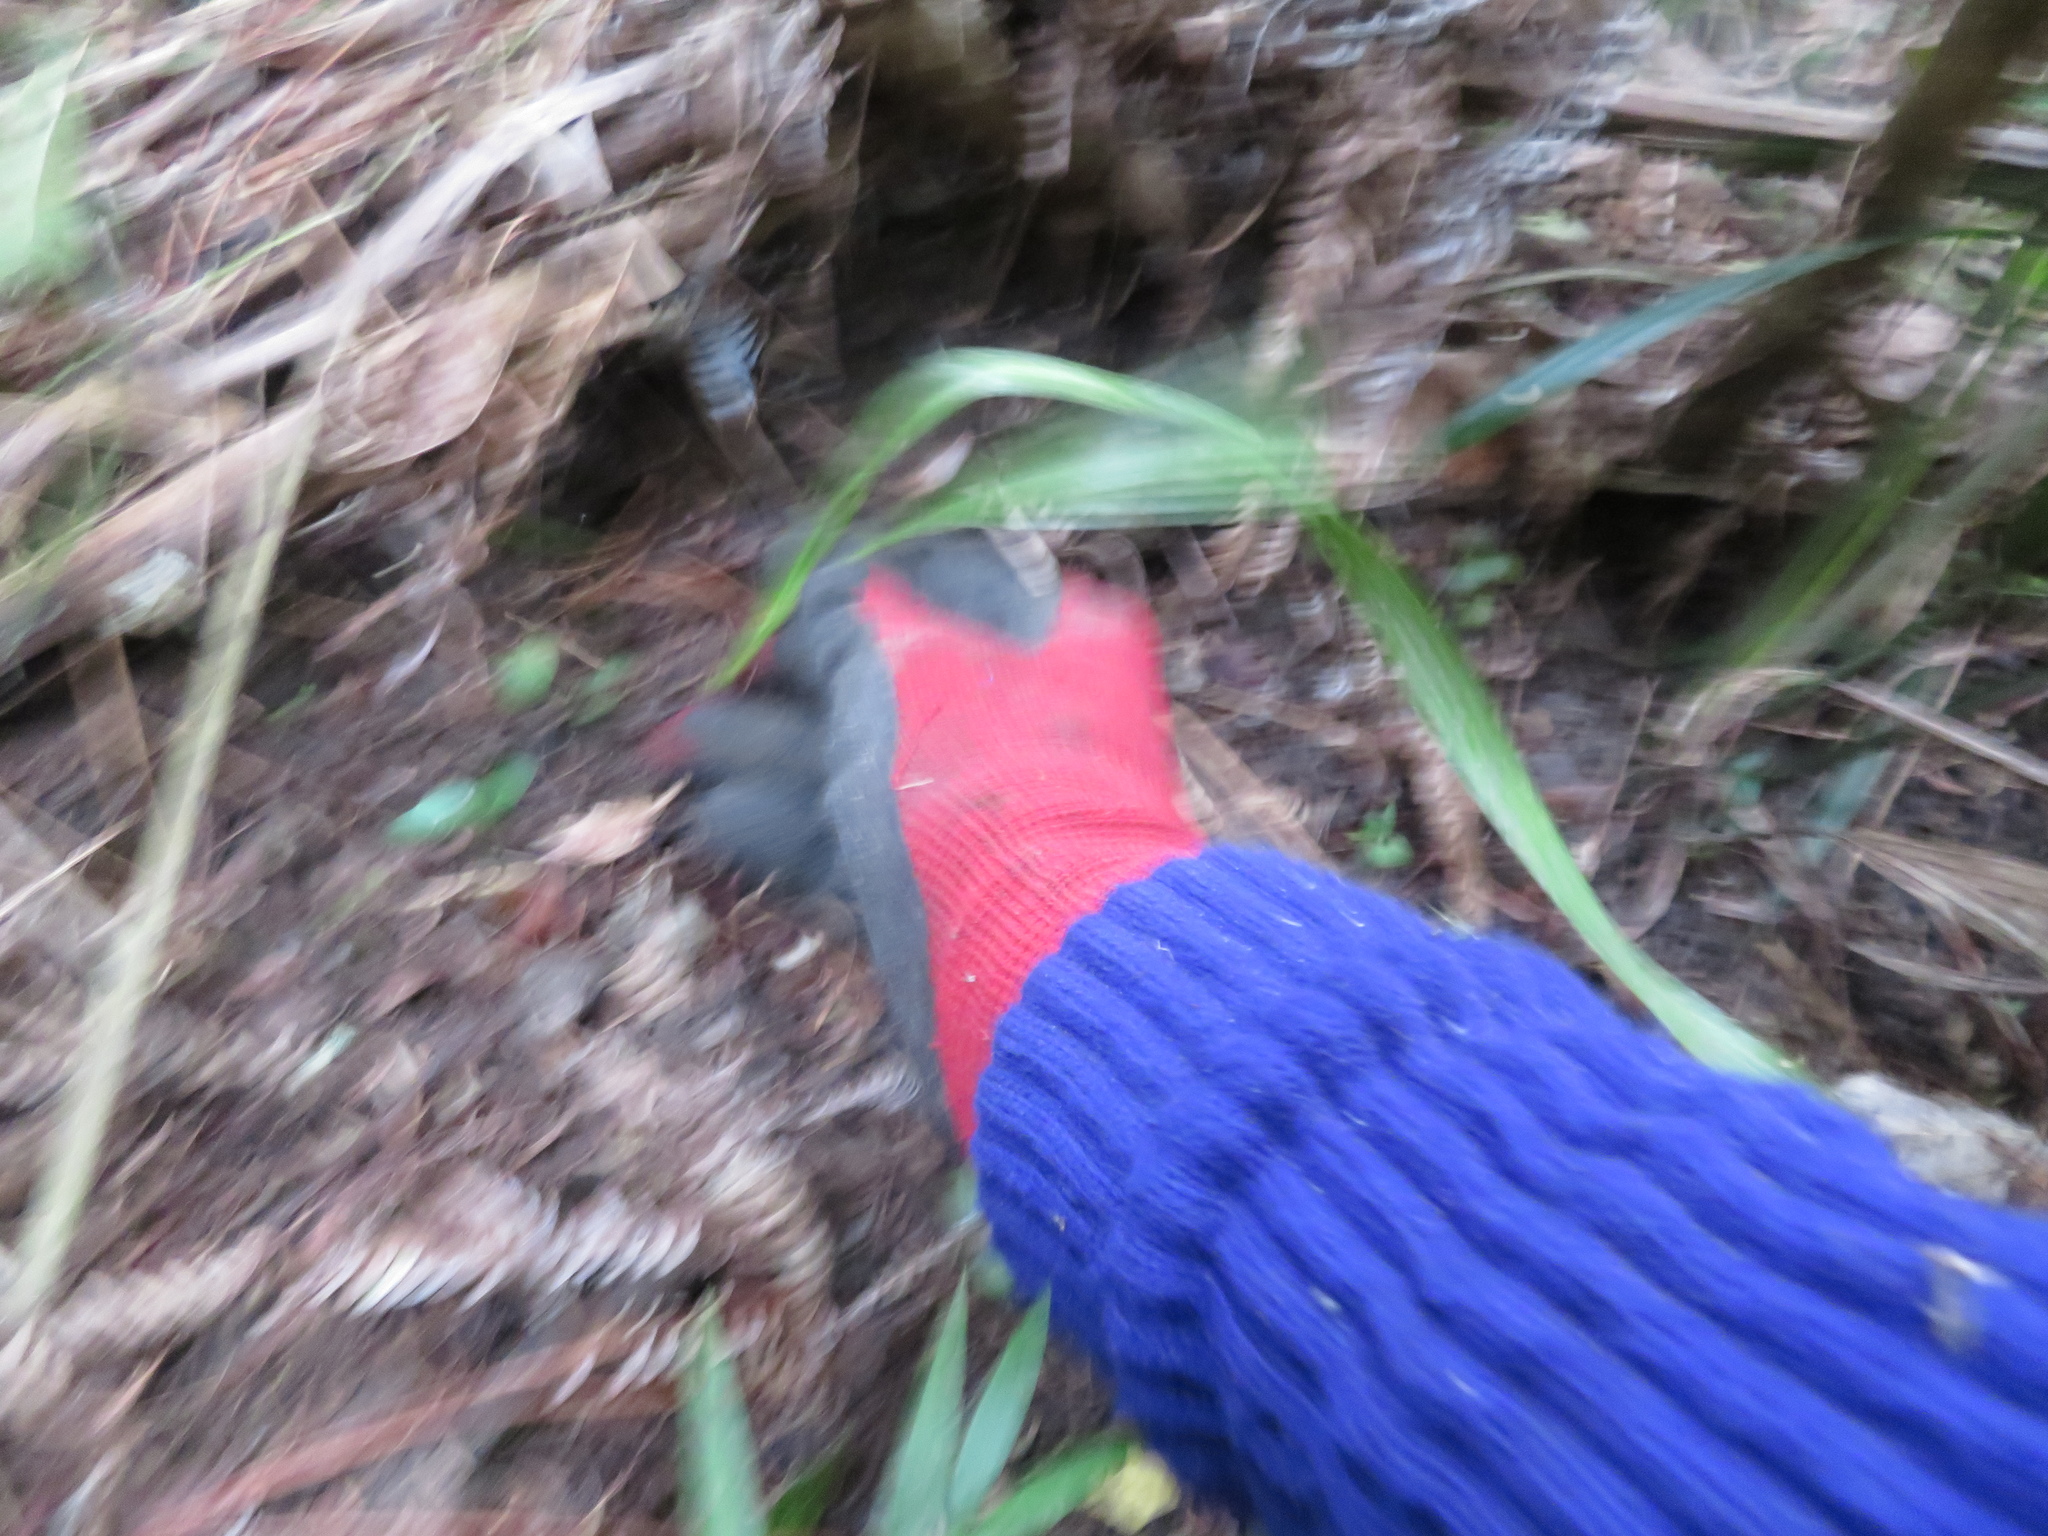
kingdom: Plantae
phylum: Tracheophyta
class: Liliopsida
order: Arecales
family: Arecaceae
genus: Phoenix
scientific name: Phoenix canariensis
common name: Canary island date palm
